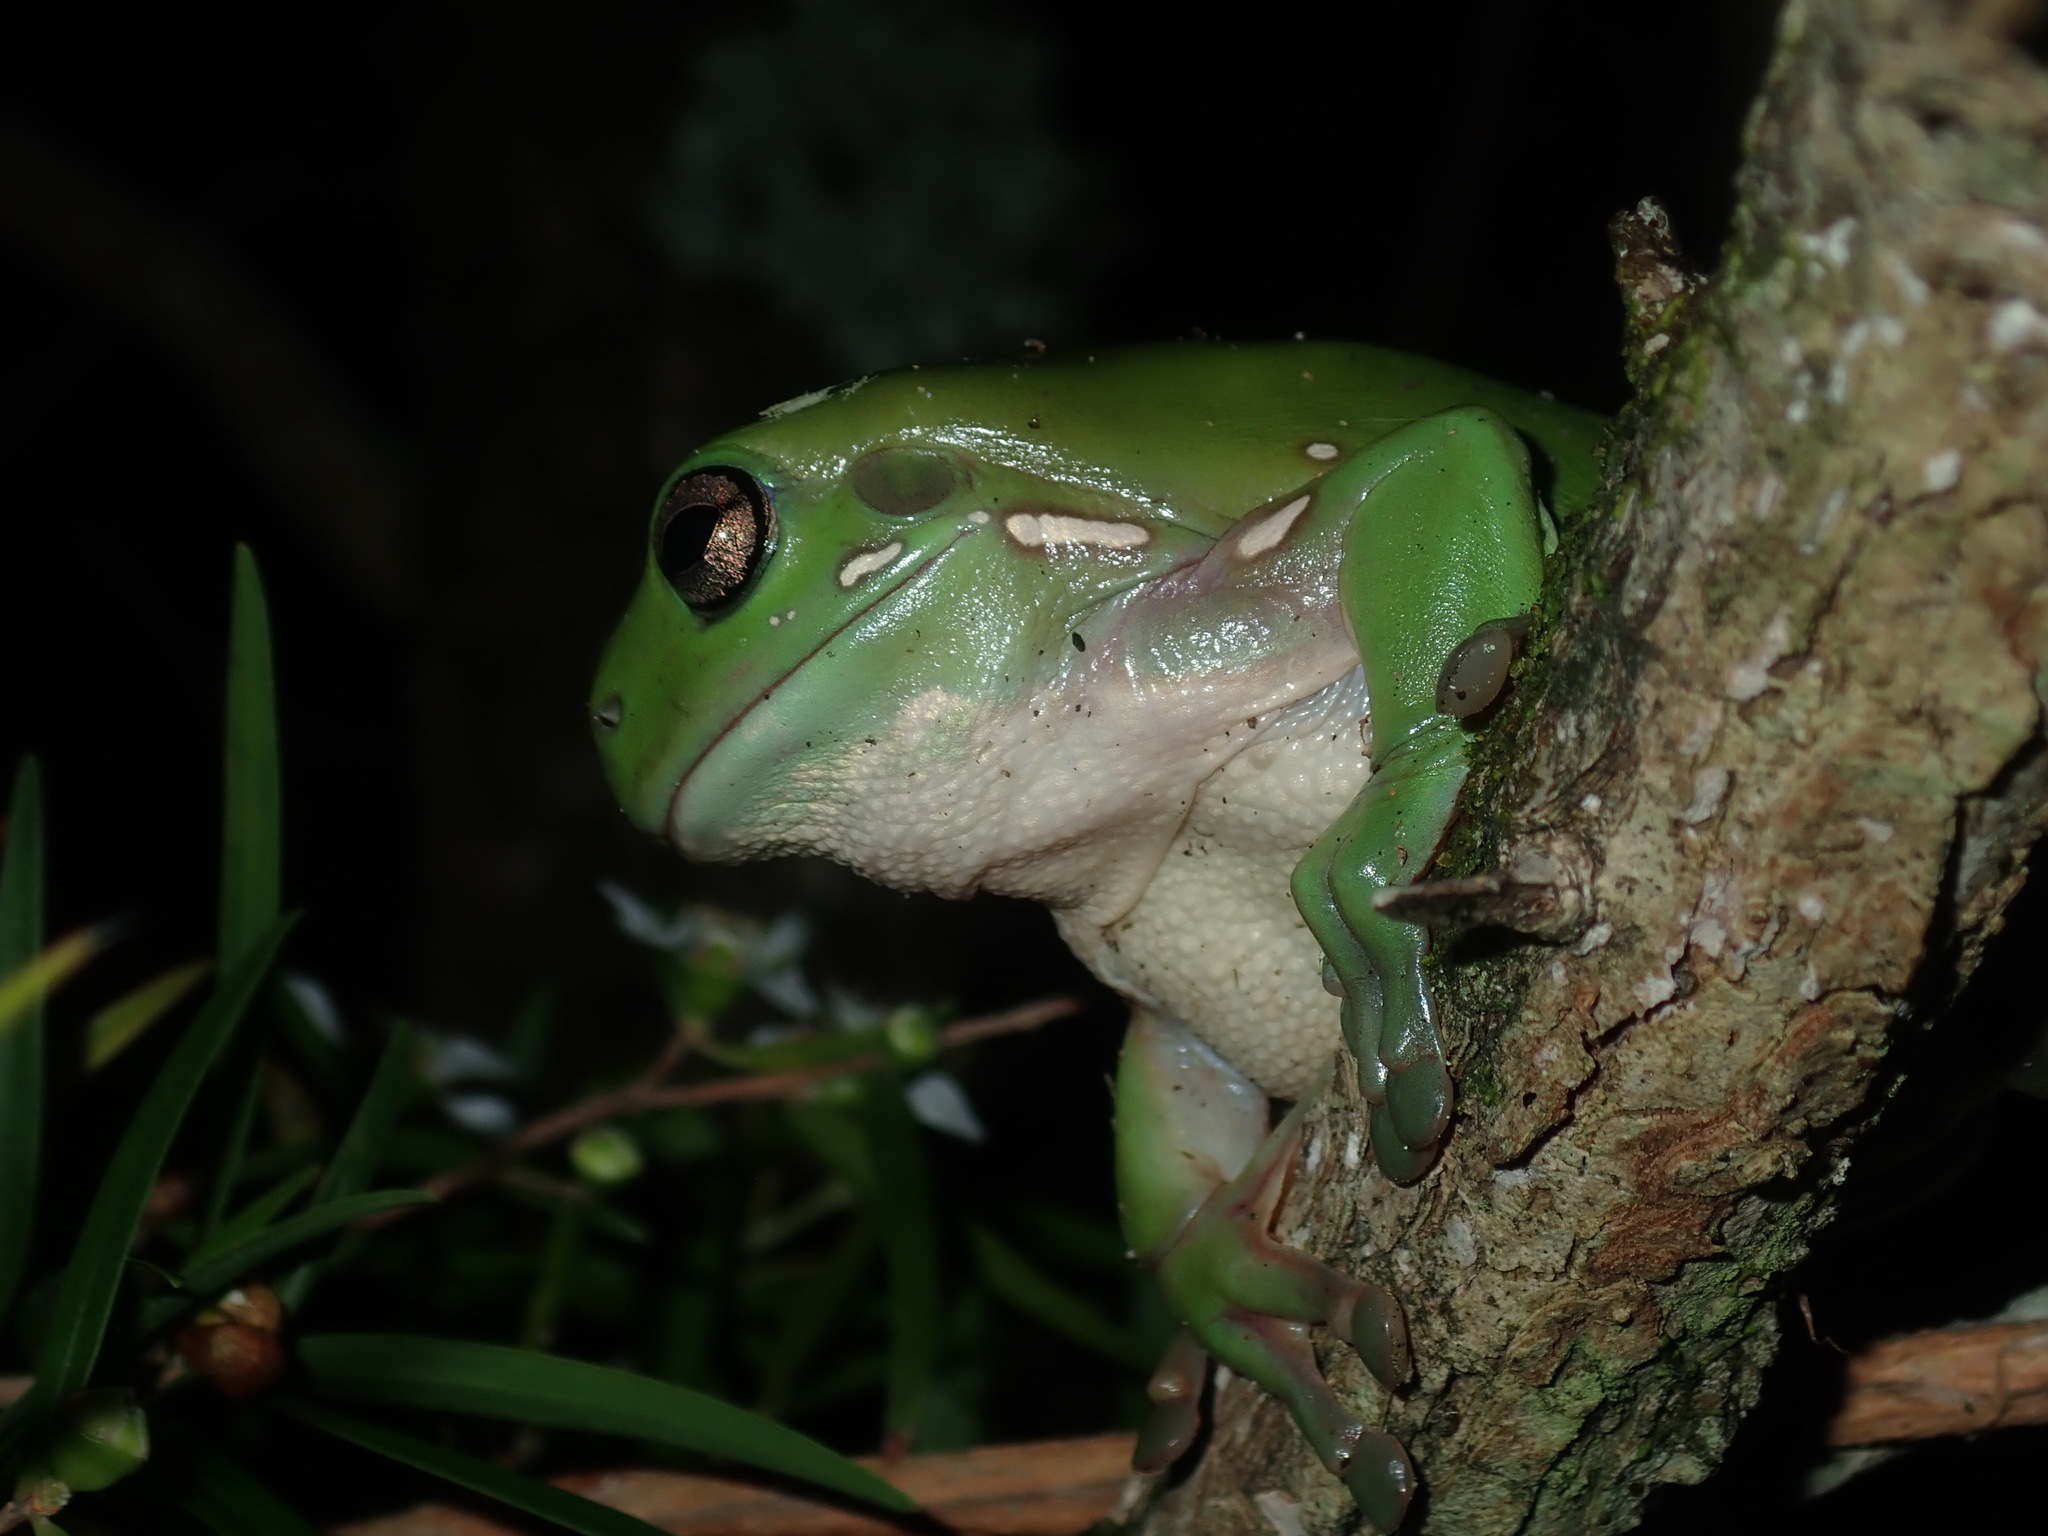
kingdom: Animalia
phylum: Chordata
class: Amphibia
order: Anura
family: Pelodryadidae
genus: Ranoidea
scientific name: Ranoidea caerulea
